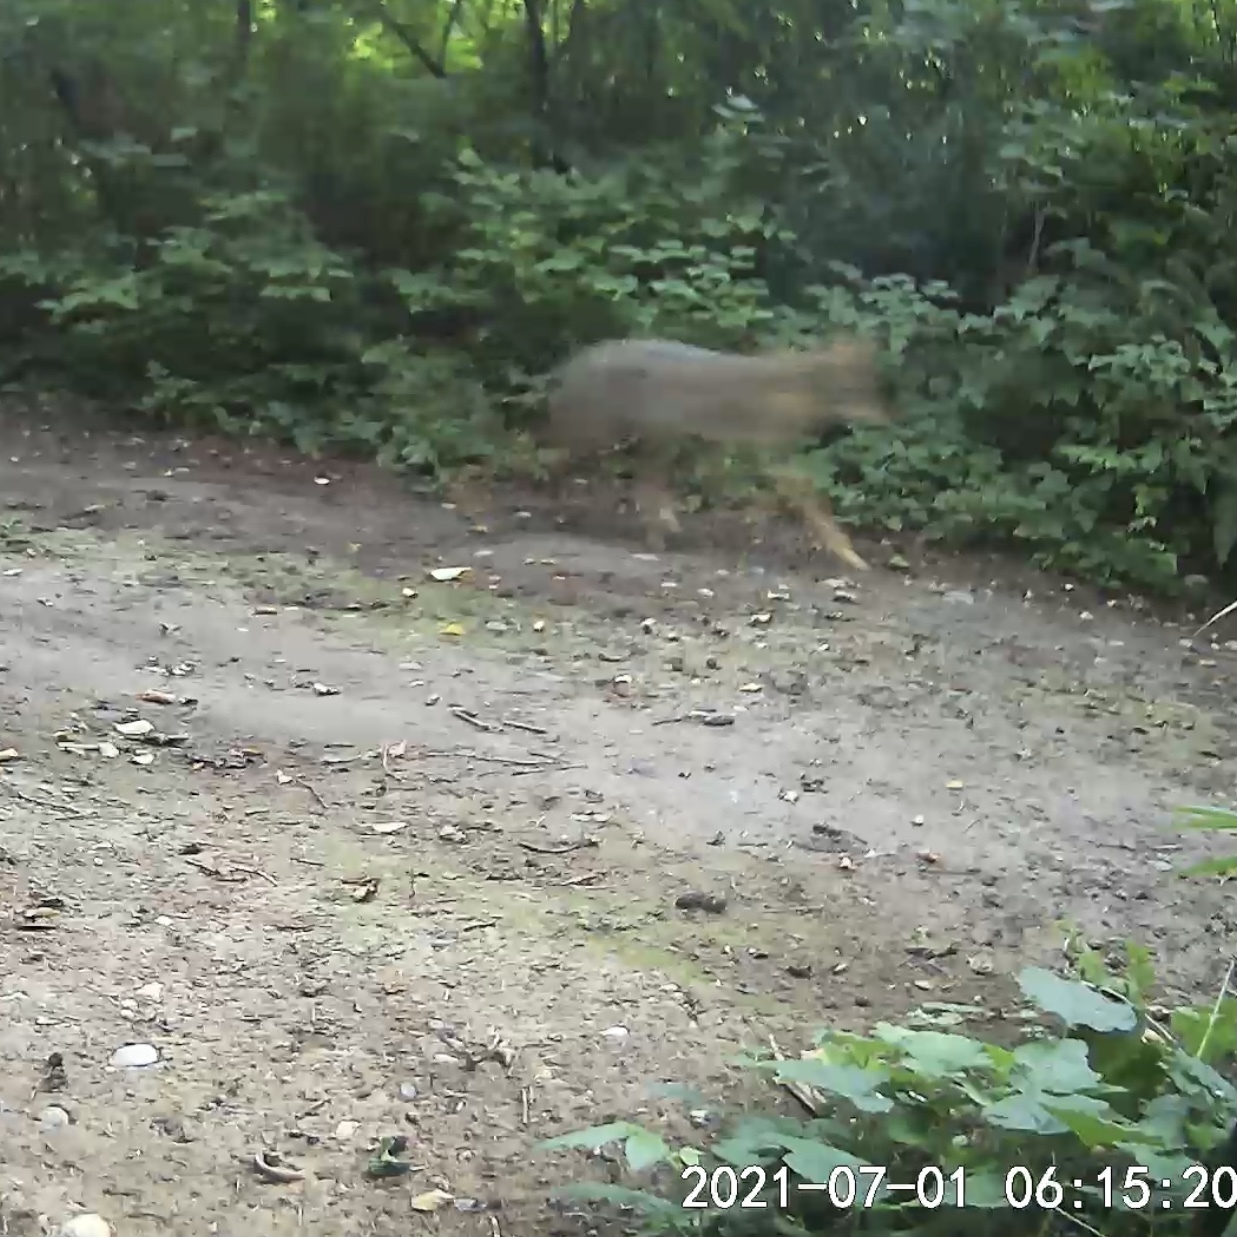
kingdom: Animalia
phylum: Chordata
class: Mammalia
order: Carnivora
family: Canidae
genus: Canis
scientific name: Canis latrans
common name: Coyote
